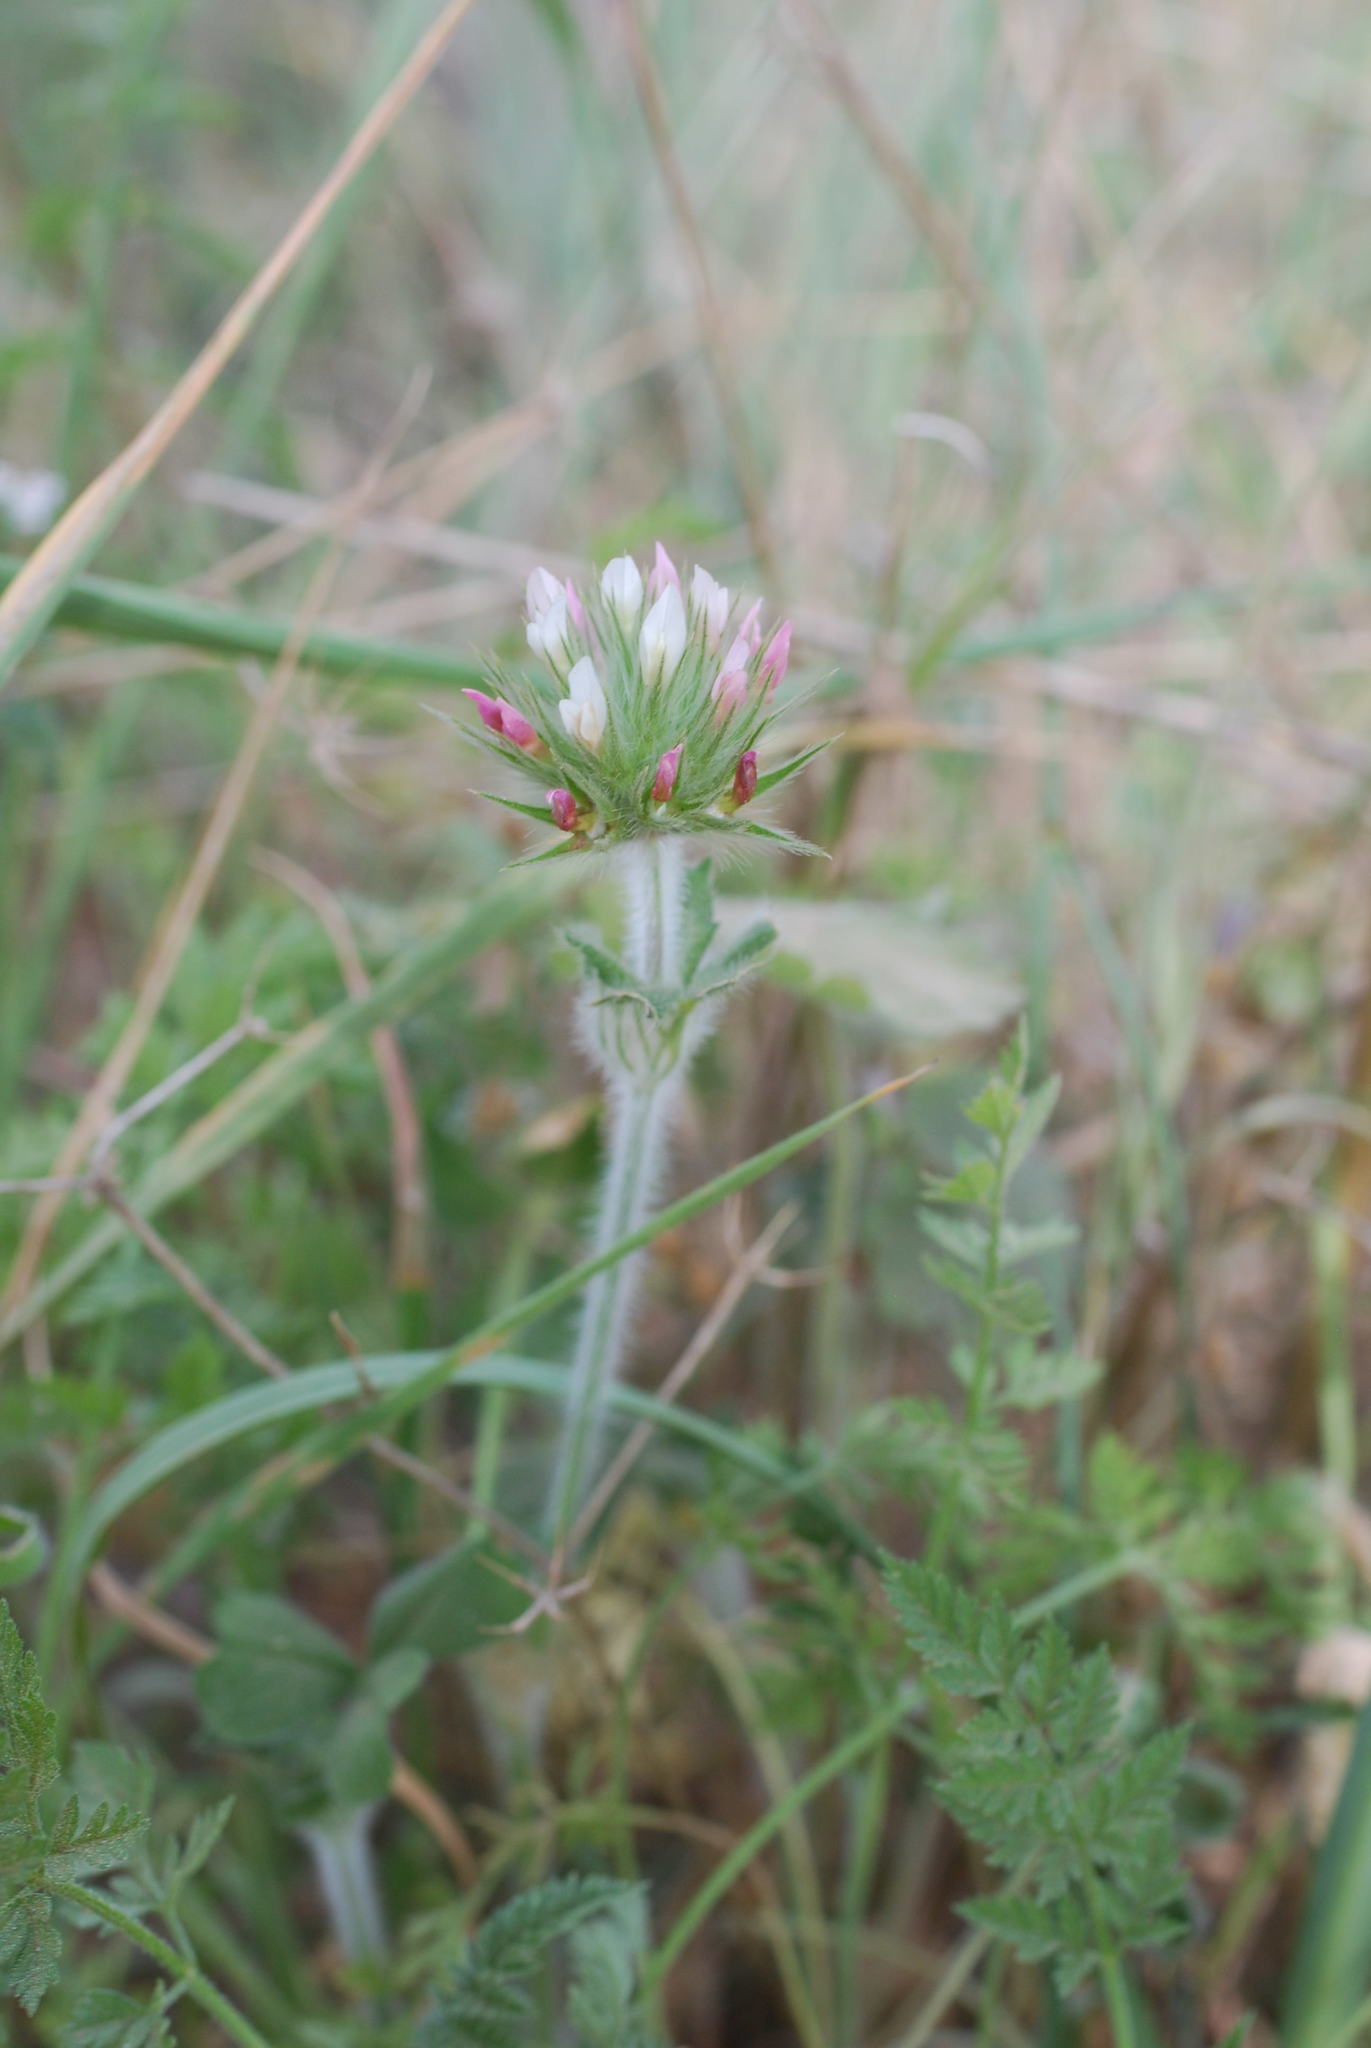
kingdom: Plantae
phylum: Tracheophyta
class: Magnoliopsida
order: Fabales
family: Fabaceae
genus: Trifolium
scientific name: Trifolium stellatum
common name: Starry clover
